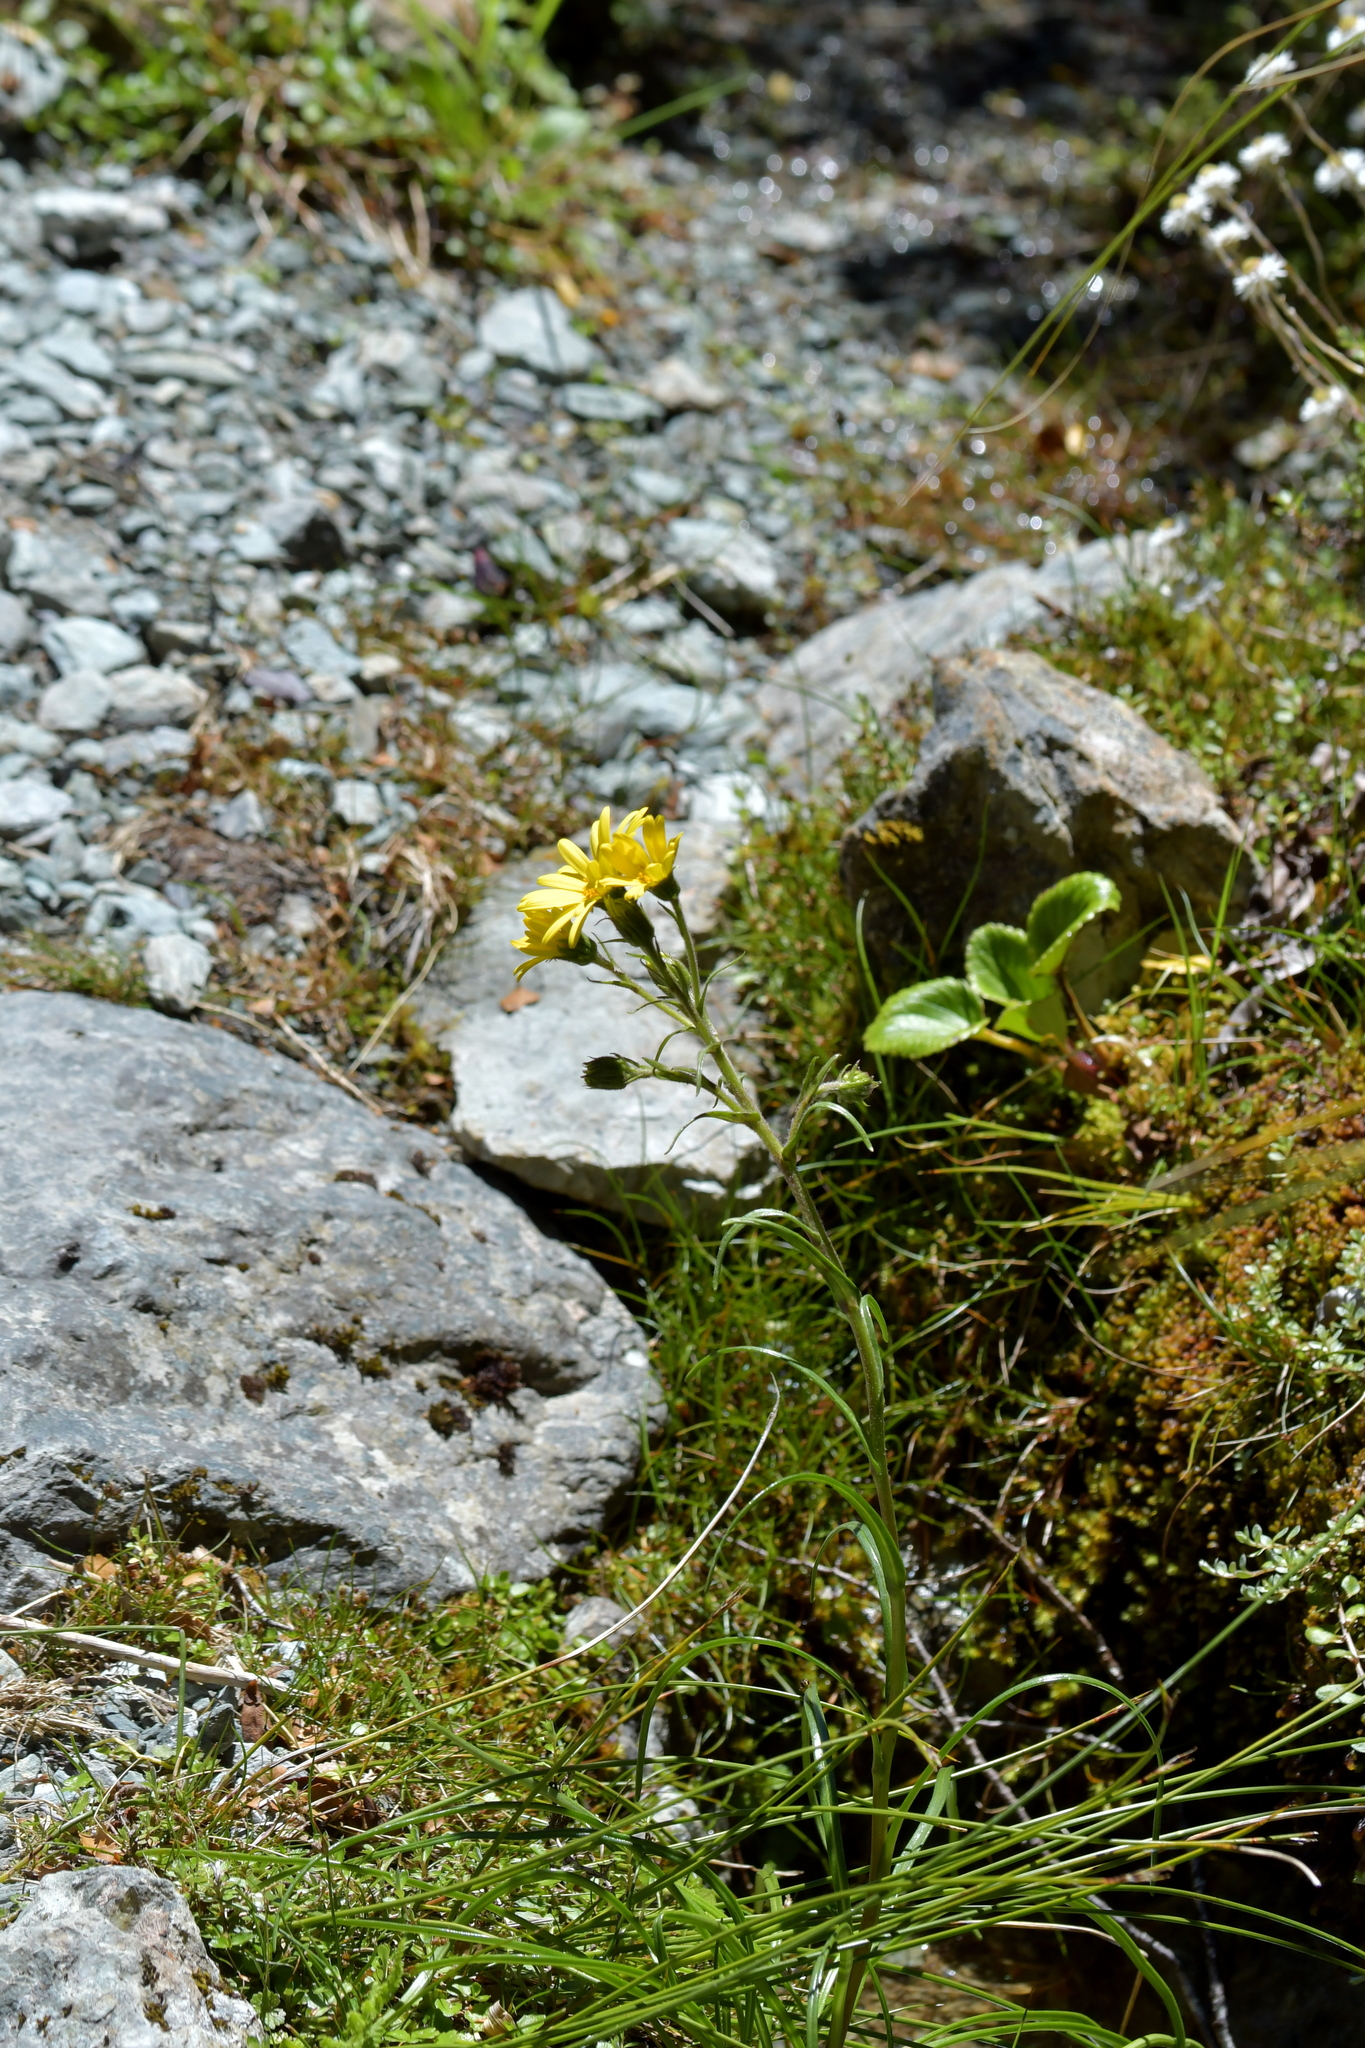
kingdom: Plantae
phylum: Tracheophyta
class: Magnoliopsida
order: Asterales
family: Asteraceae
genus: Dolichoglottis
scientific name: Dolichoglottis lyallii
